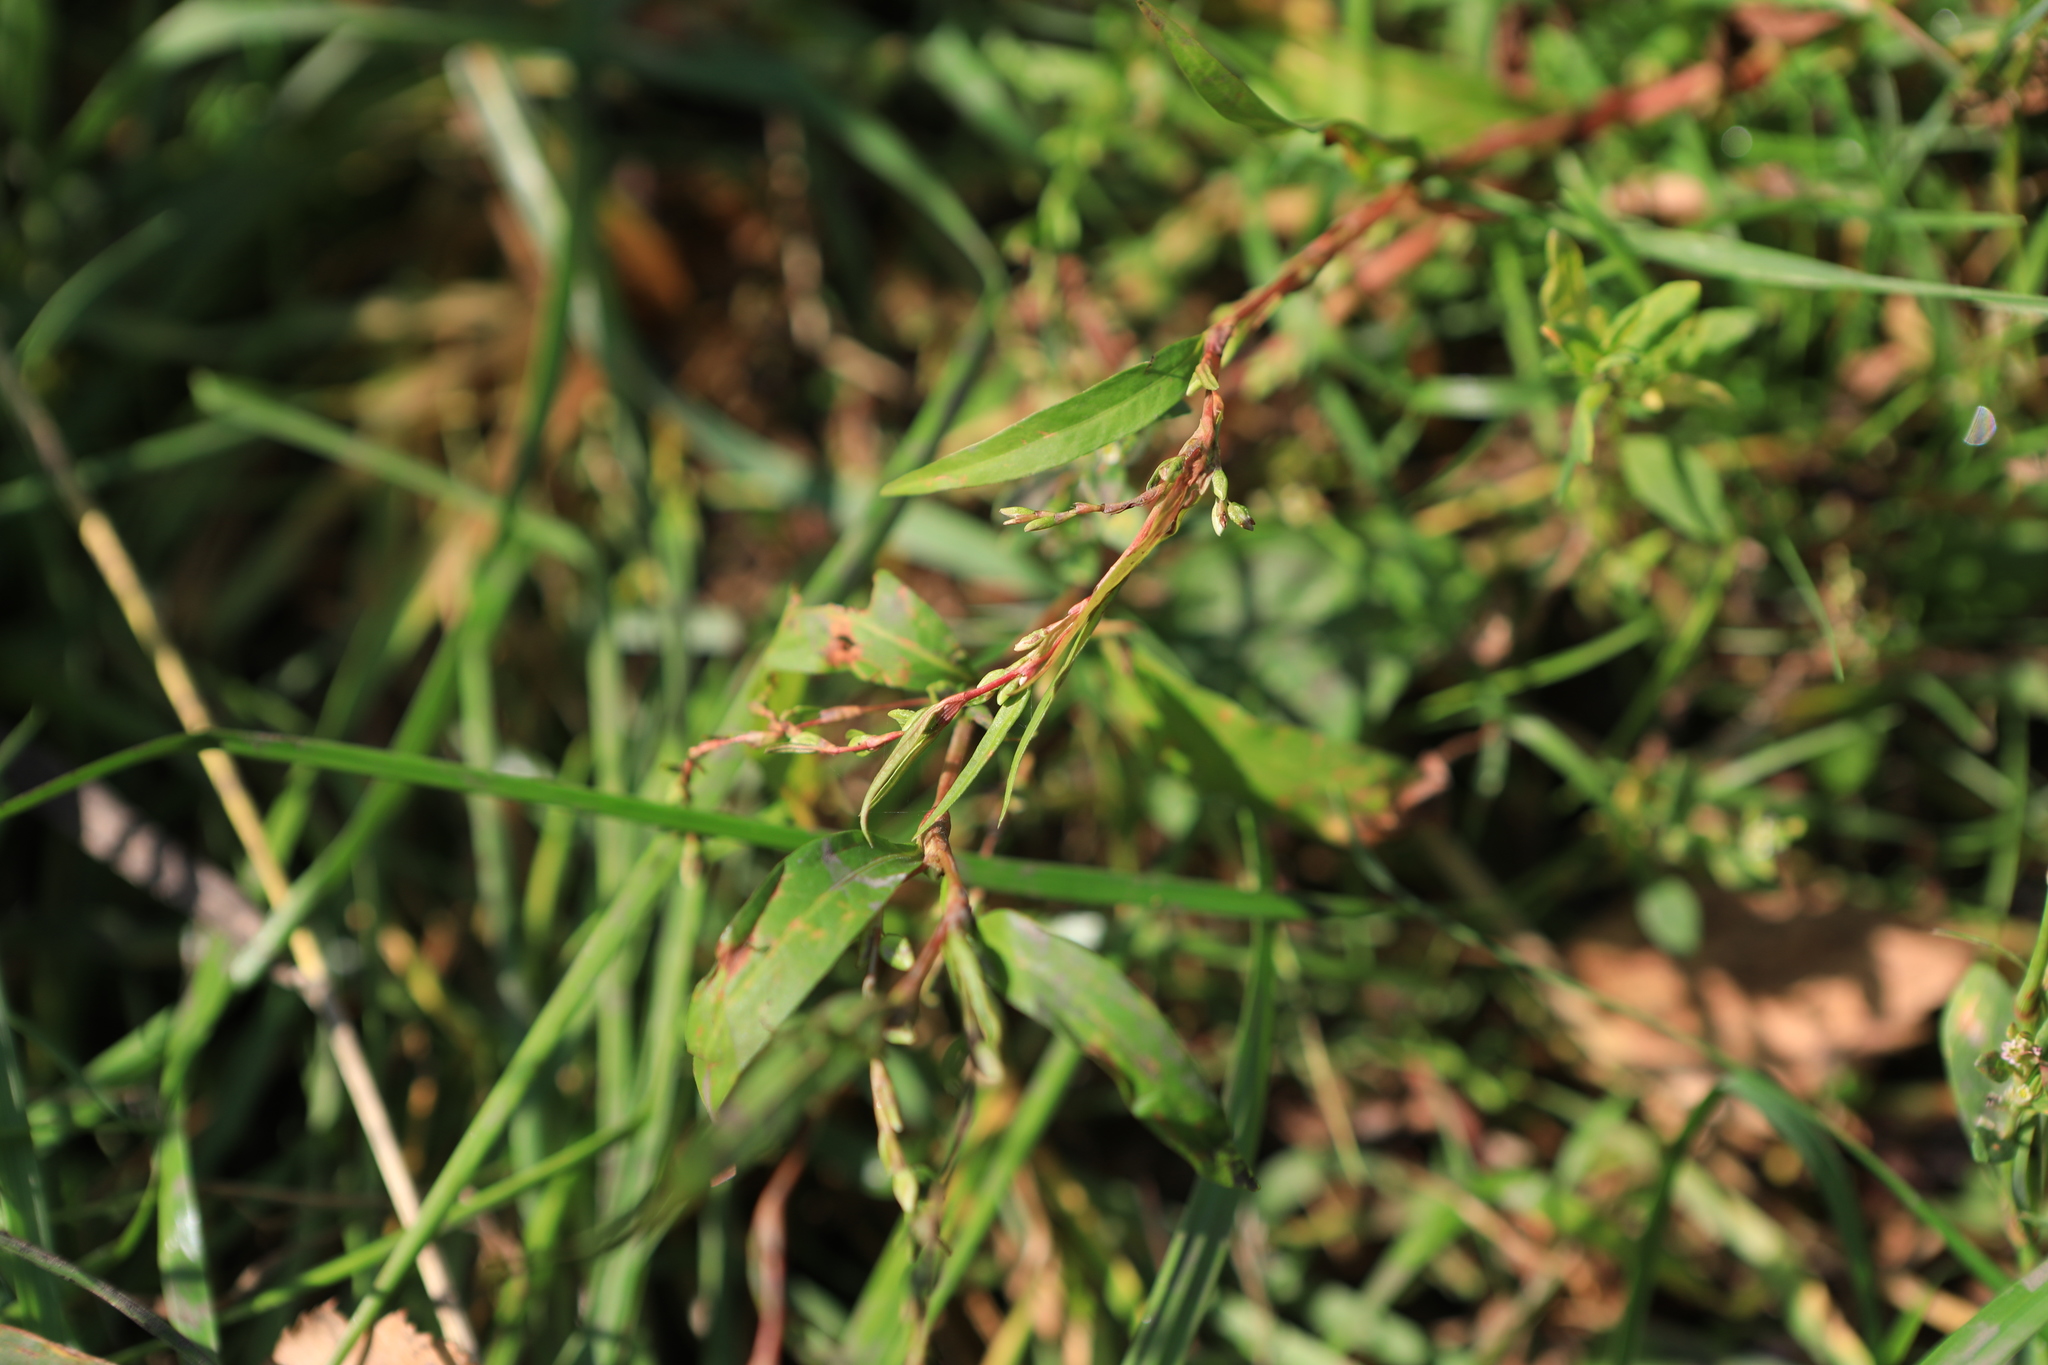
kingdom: Plantae
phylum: Tracheophyta
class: Magnoliopsida
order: Caryophyllales
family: Polygonaceae
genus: Persicaria
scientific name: Persicaria hydropiper
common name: Water-pepper
